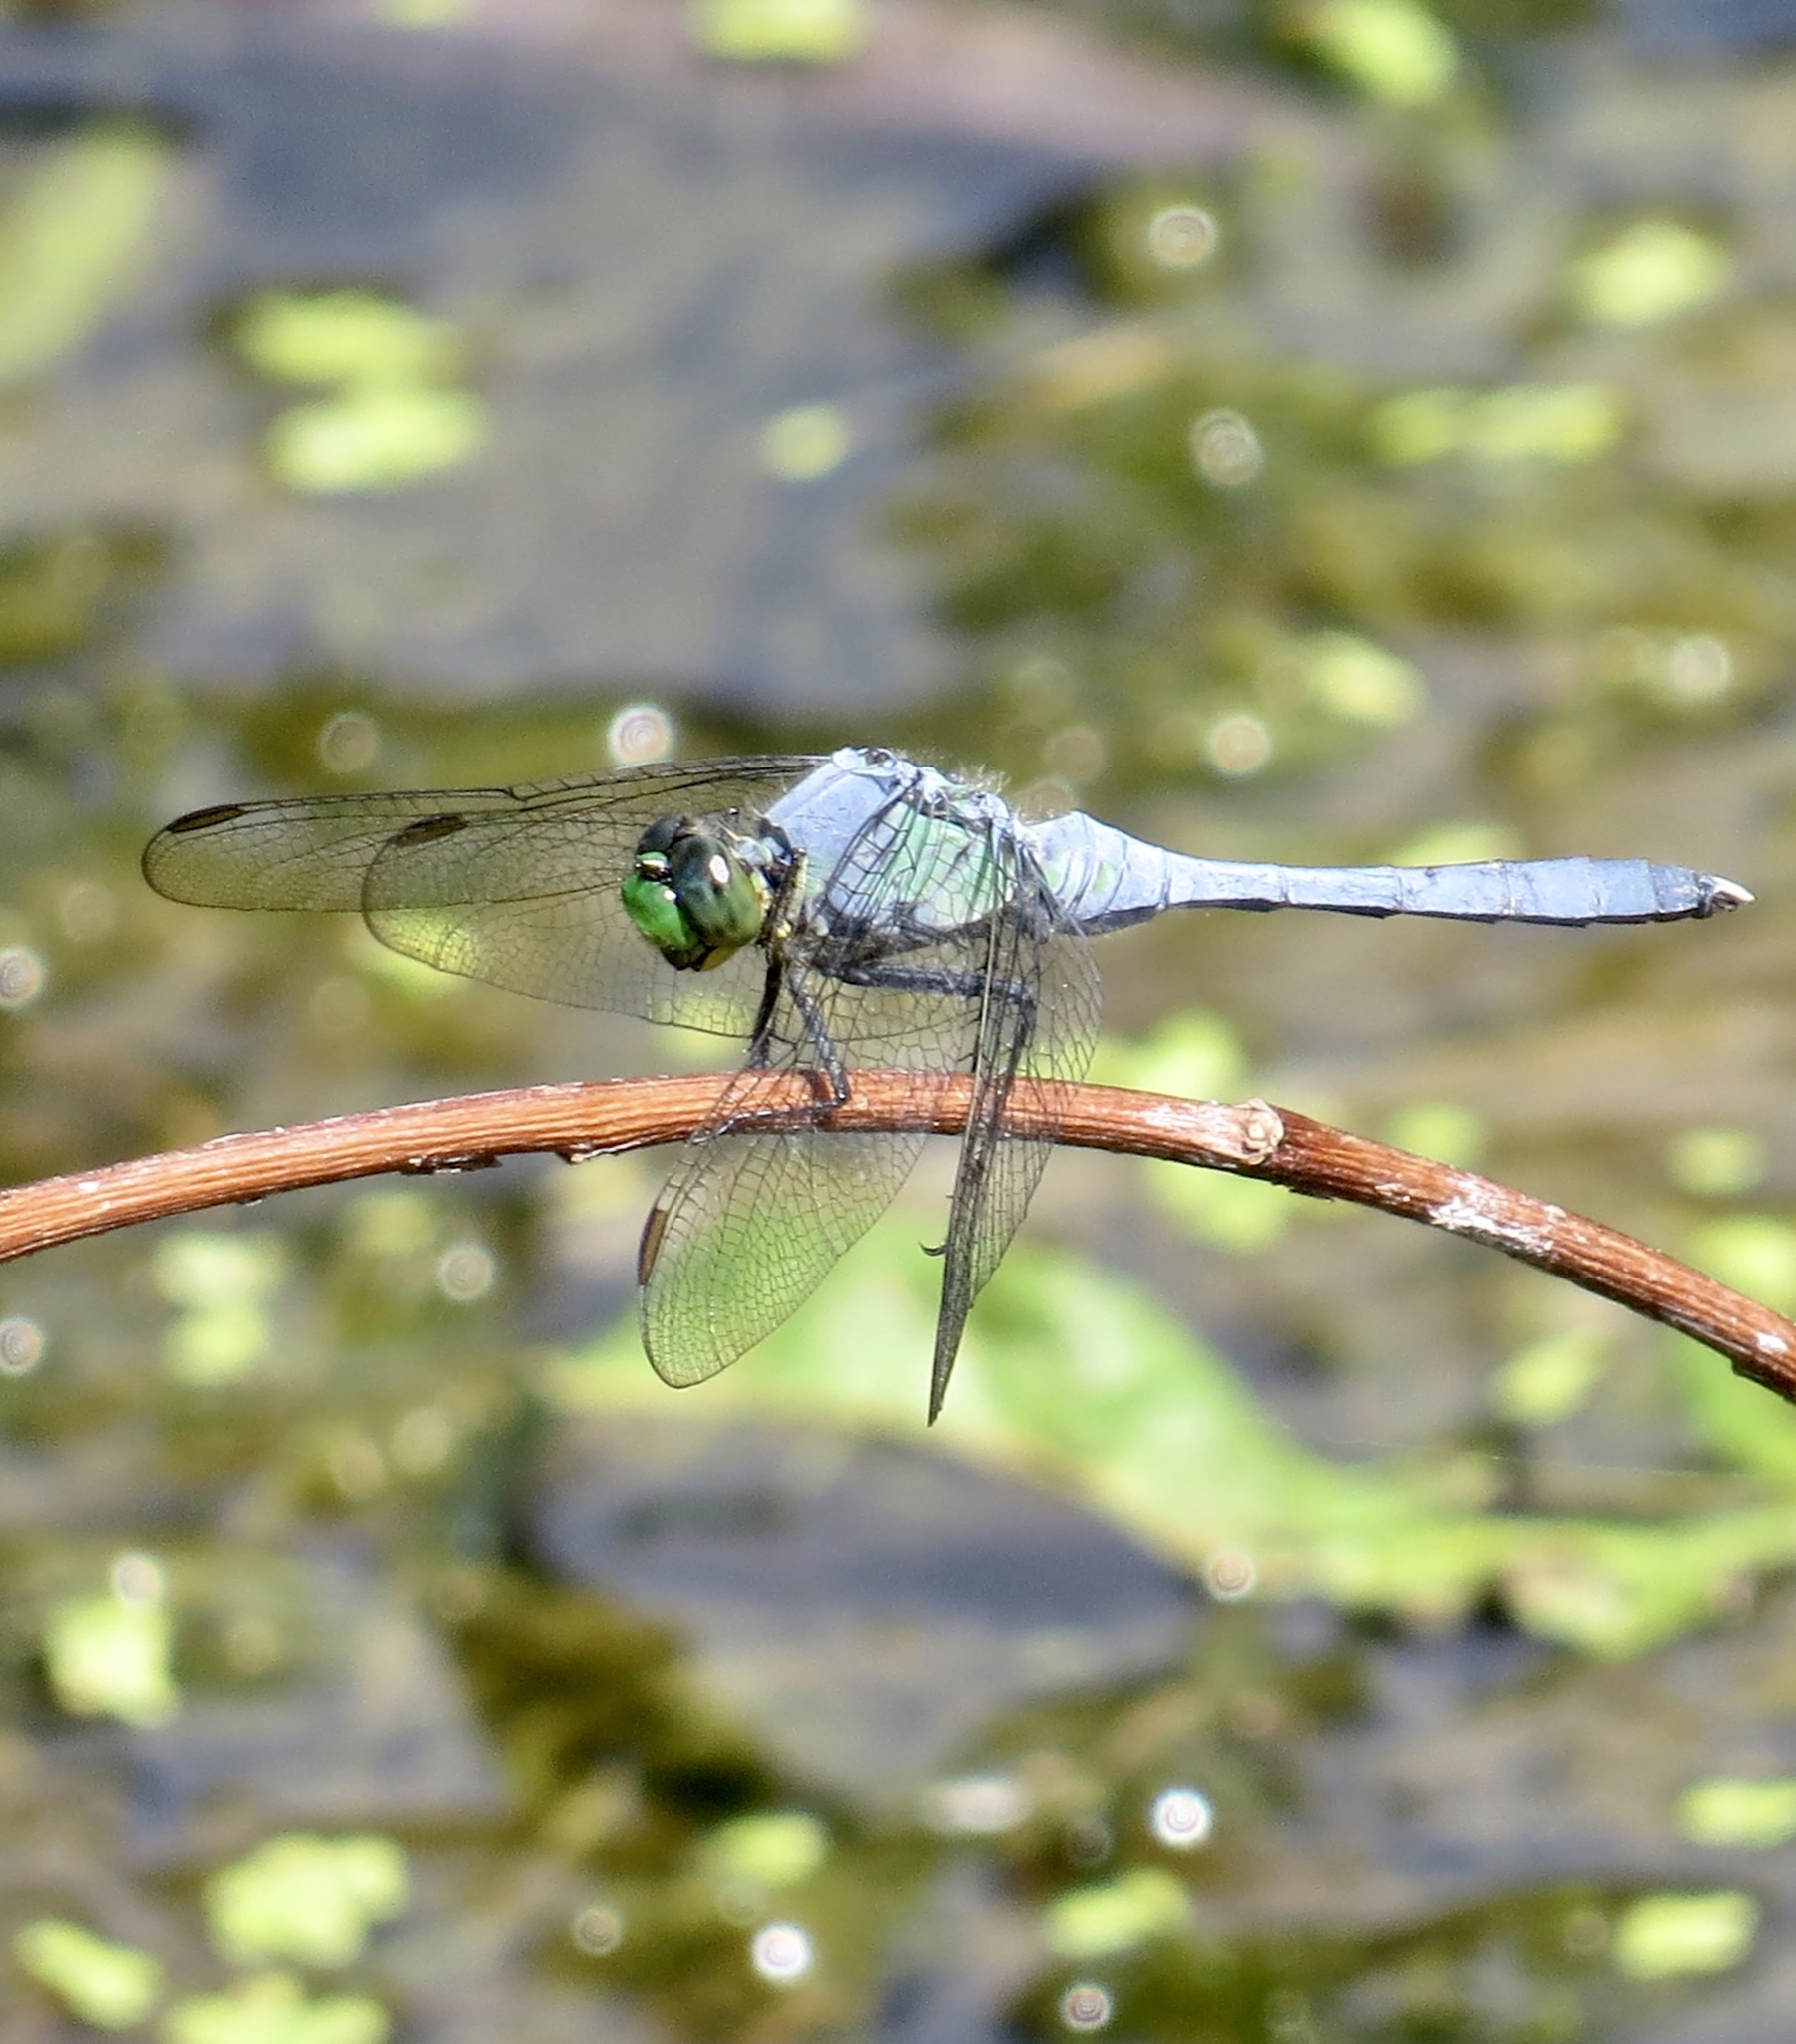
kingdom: Animalia
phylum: Arthropoda
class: Insecta
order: Odonata
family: Libellulidae
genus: Erythemis
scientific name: Erythemis simplicicollis
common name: Eastern pondhawk
